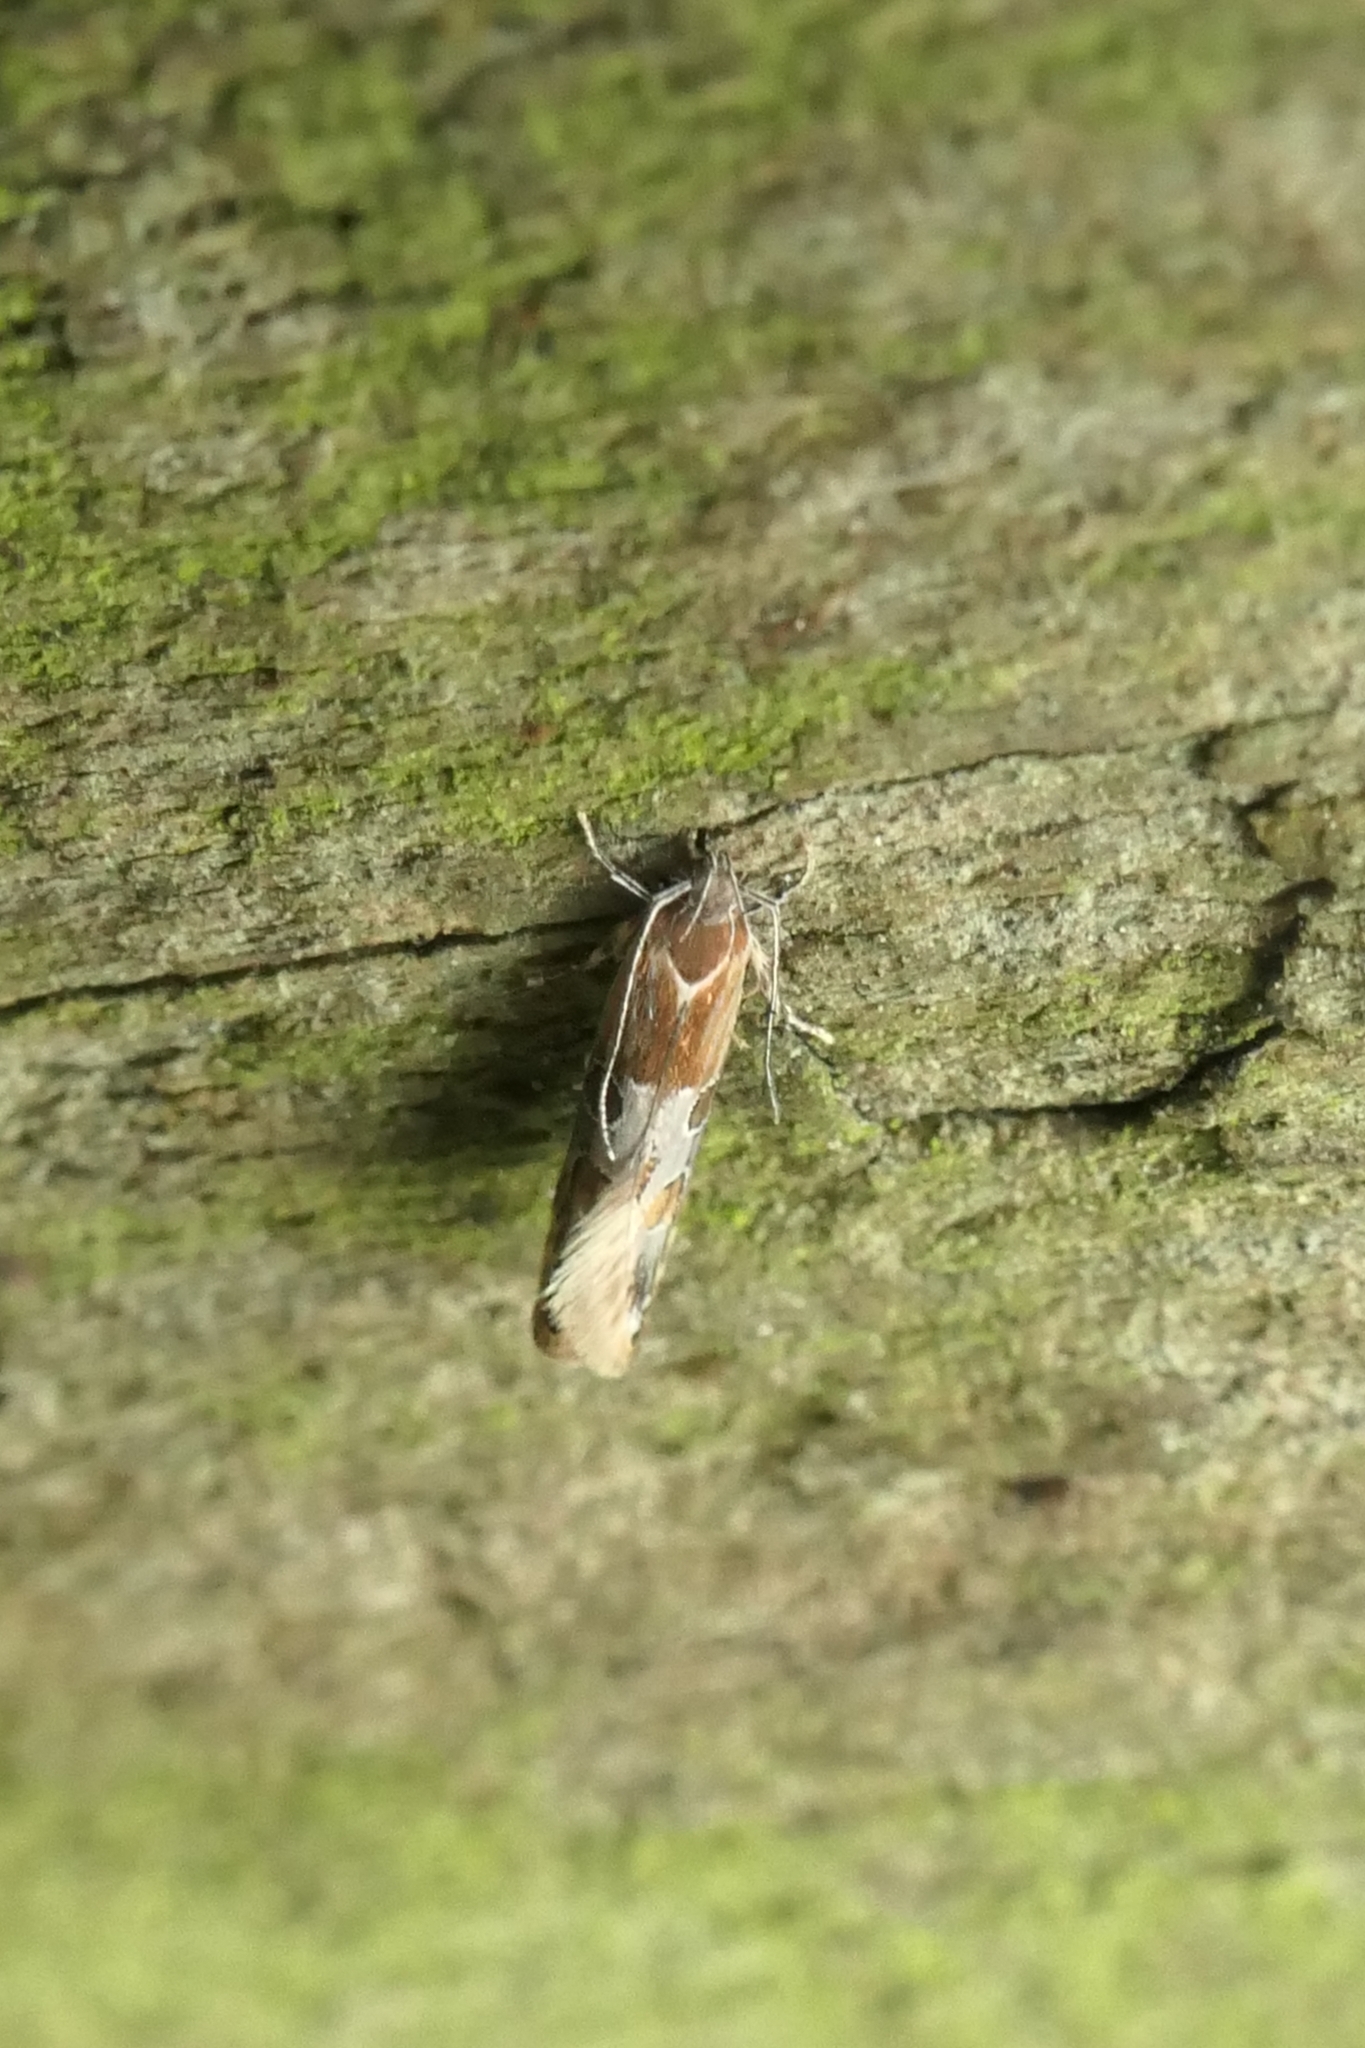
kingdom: Animalia
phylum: Arthropoda
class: Insecta
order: Lepidoptera
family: Elachistidae
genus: Circoxena
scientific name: Circoxena ditrocha
